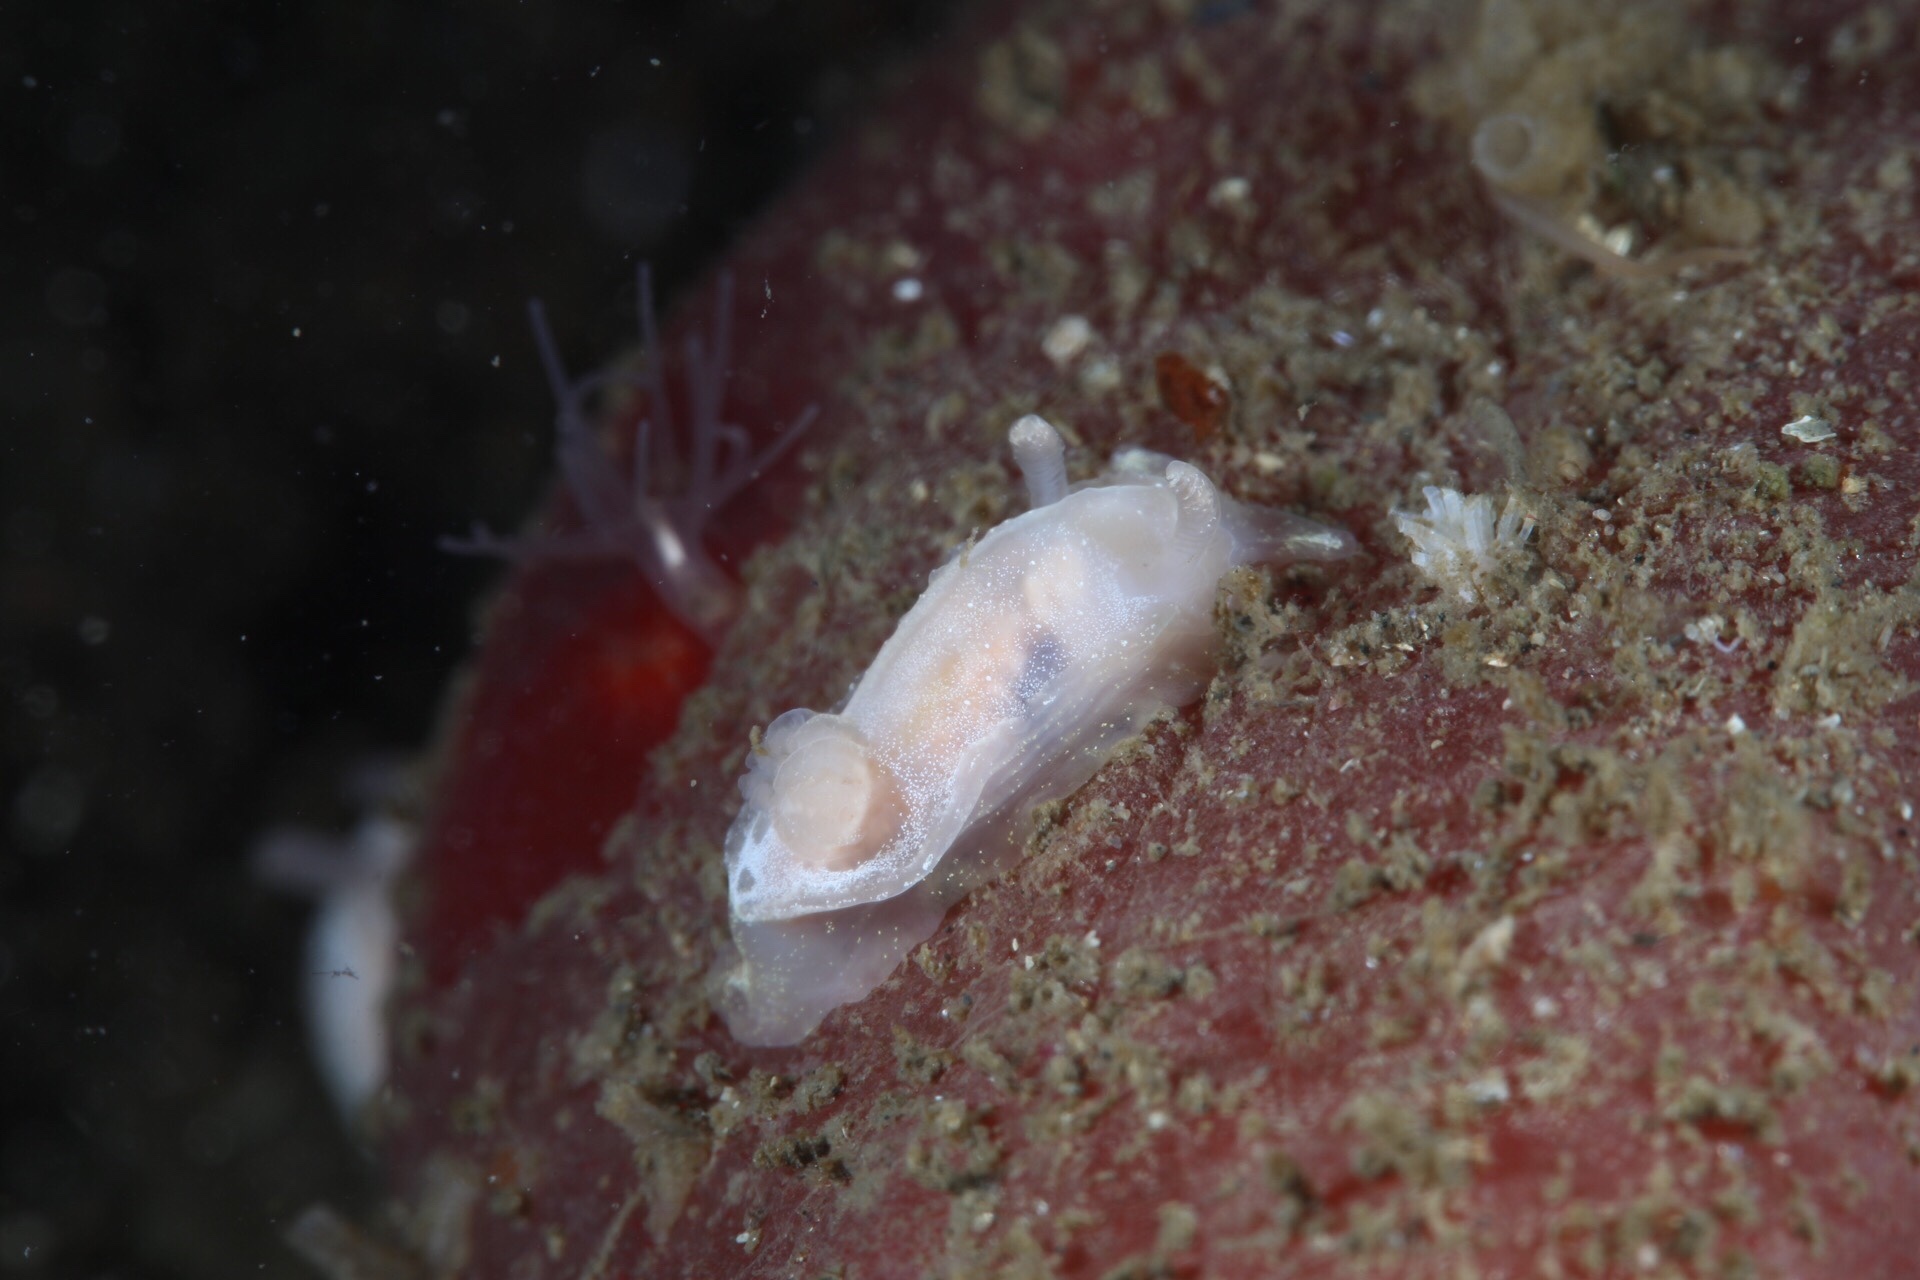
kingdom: Animalia
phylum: Mollusca
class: Gastropoda
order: Nudibranchia
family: Goniodorididae
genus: Okenia
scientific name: Okenia
